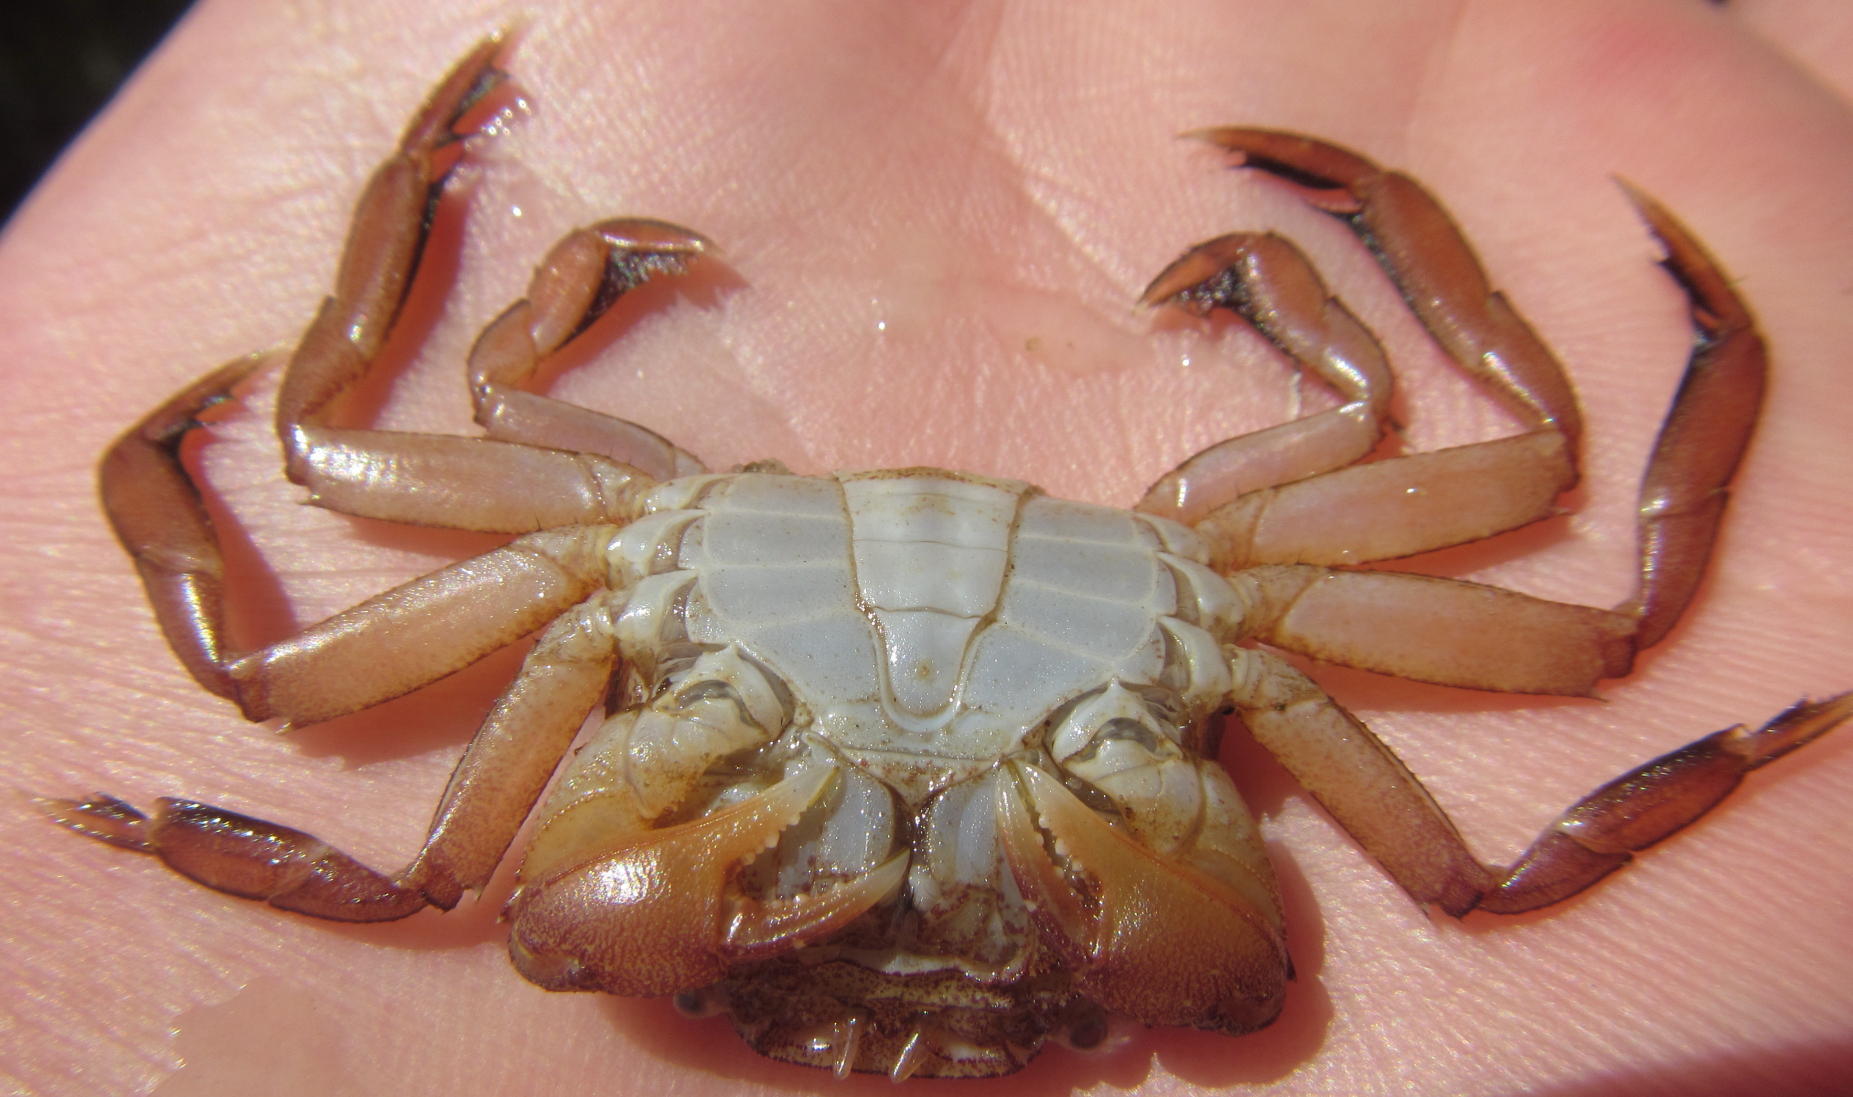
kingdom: Animalia
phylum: Arthropoda
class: Malacostraca
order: Decapoda
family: Varunidae
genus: Varuna
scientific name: Varuna litterata
